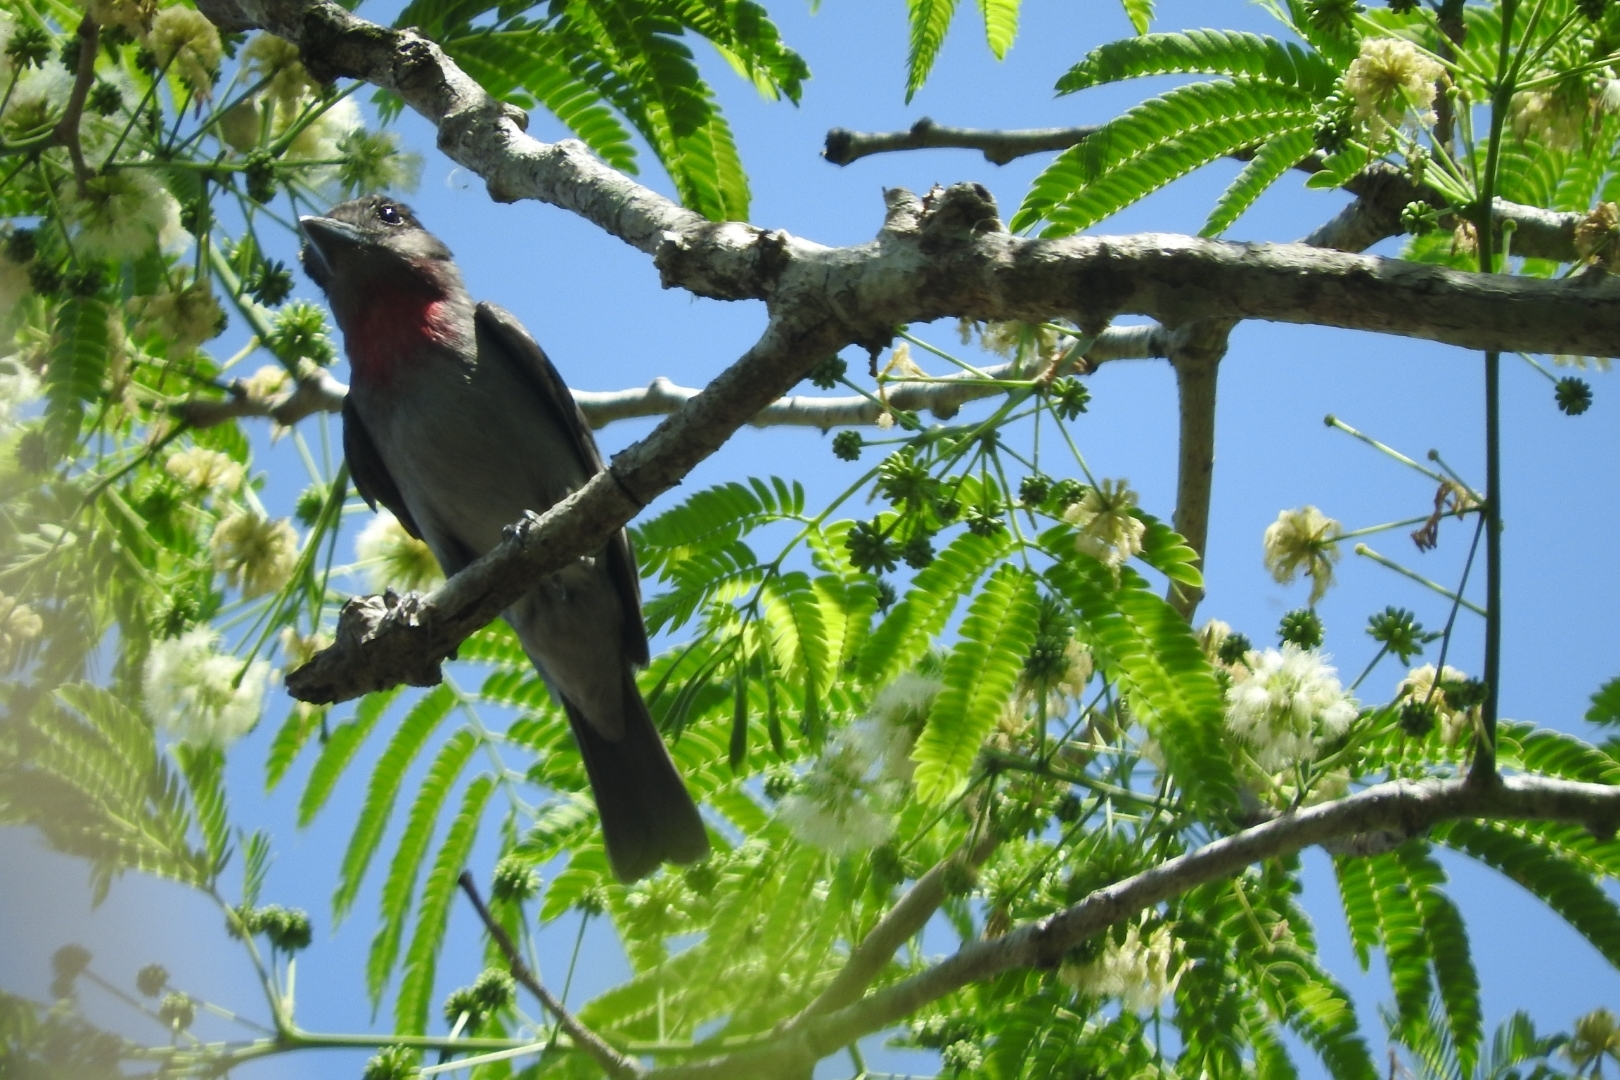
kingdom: Animalia
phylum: Chordata
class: Aves
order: Passeriformes
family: Cotingidae
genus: Pachyramphus
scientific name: Pachyramphus aglaiae
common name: Rose-throated becard
